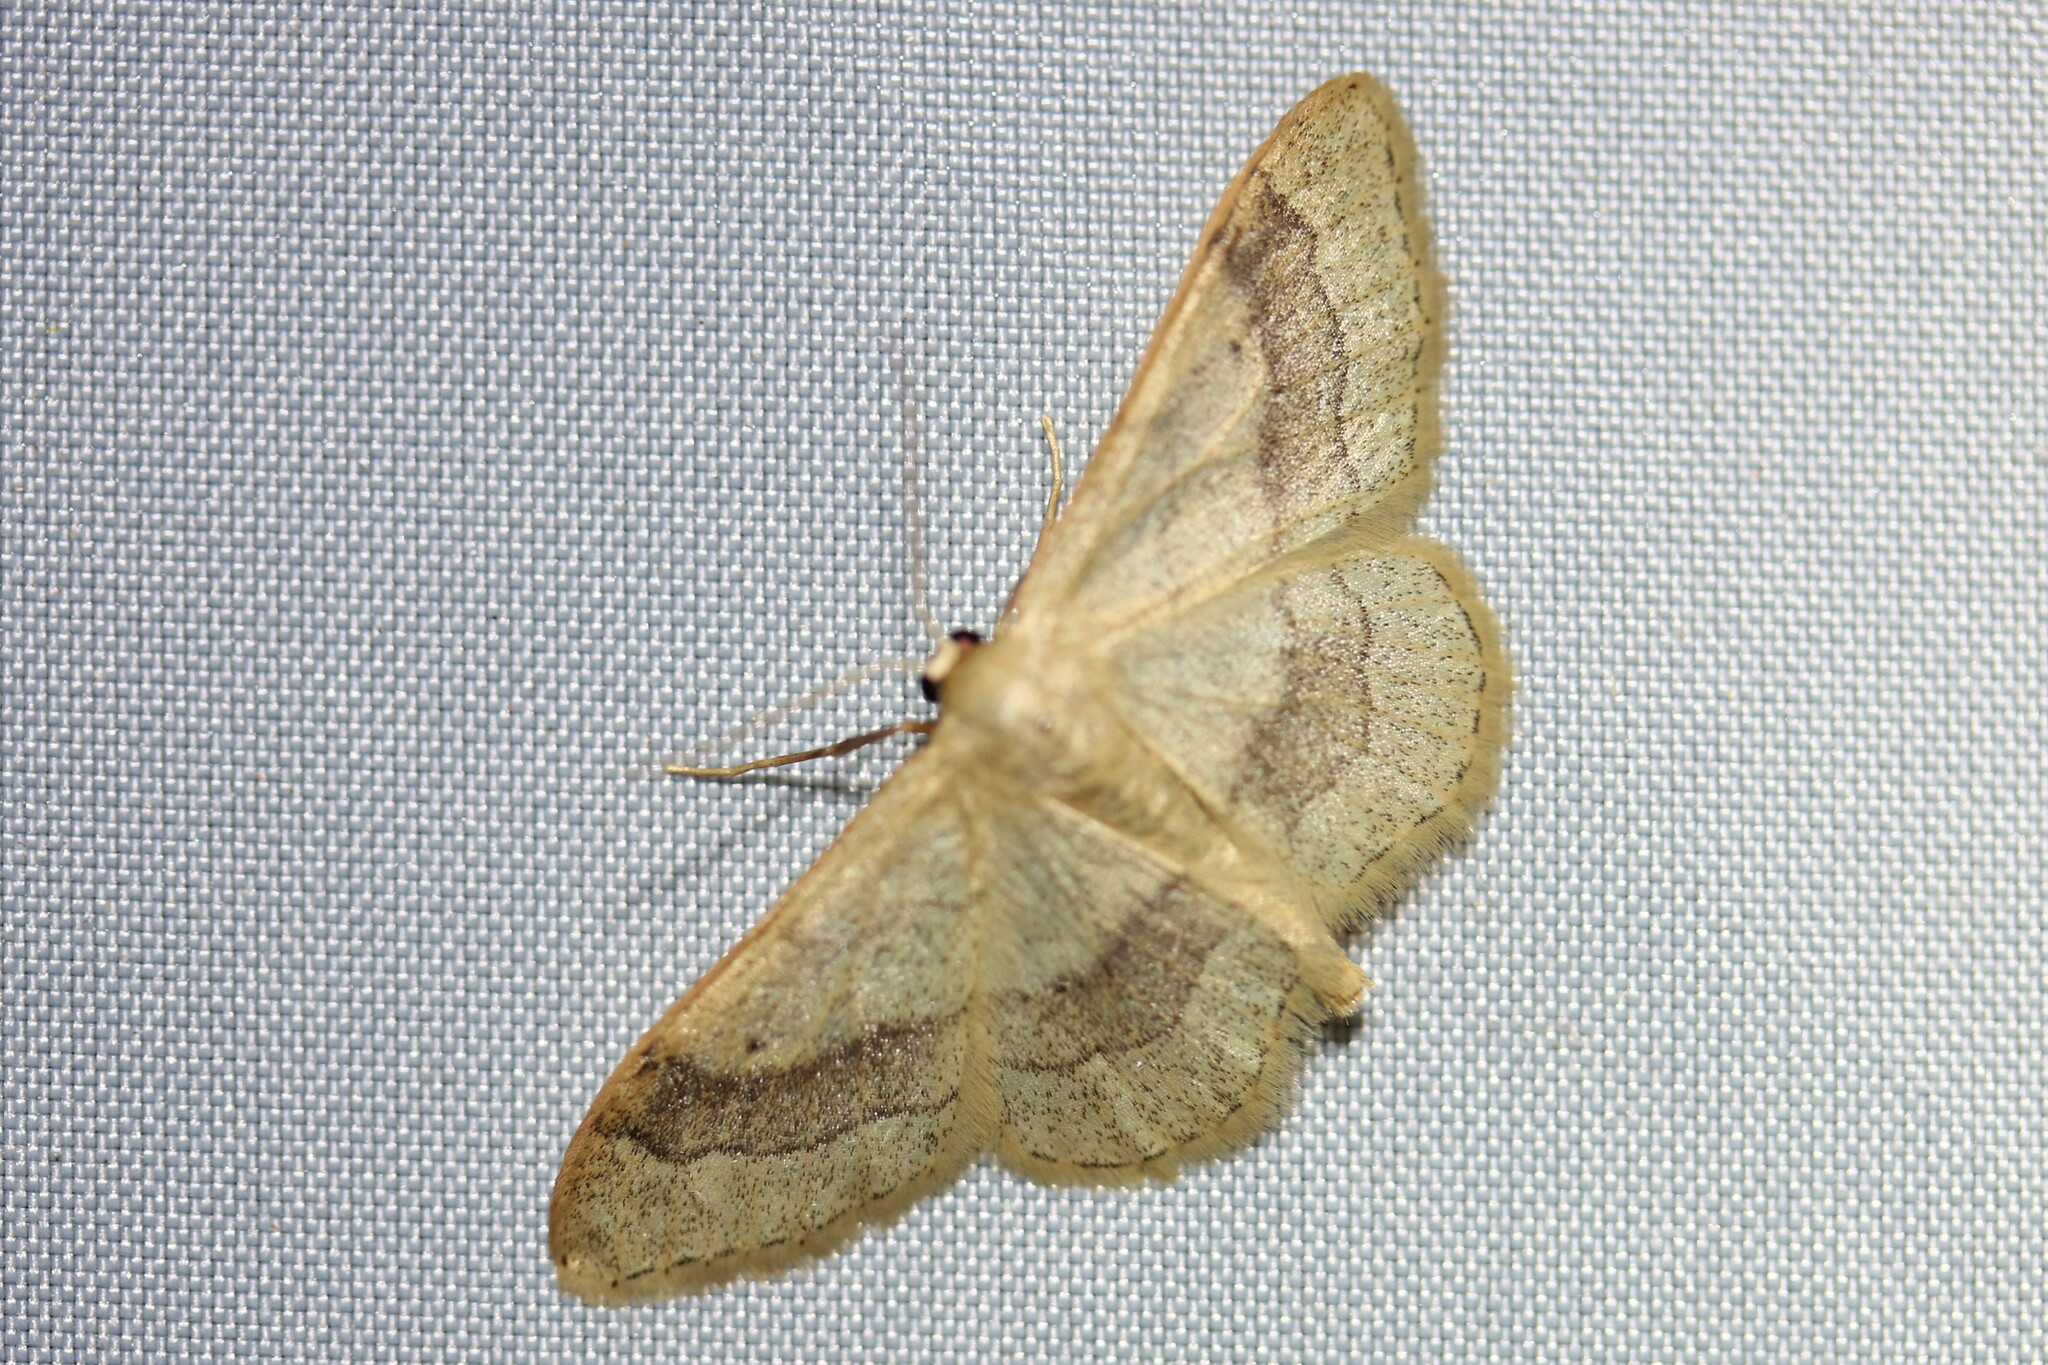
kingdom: Animalia
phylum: Arthropoda
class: Insecta
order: Lepidoptera
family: Geometridae
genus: Idaea
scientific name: Idaea aversata
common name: Riband wave
